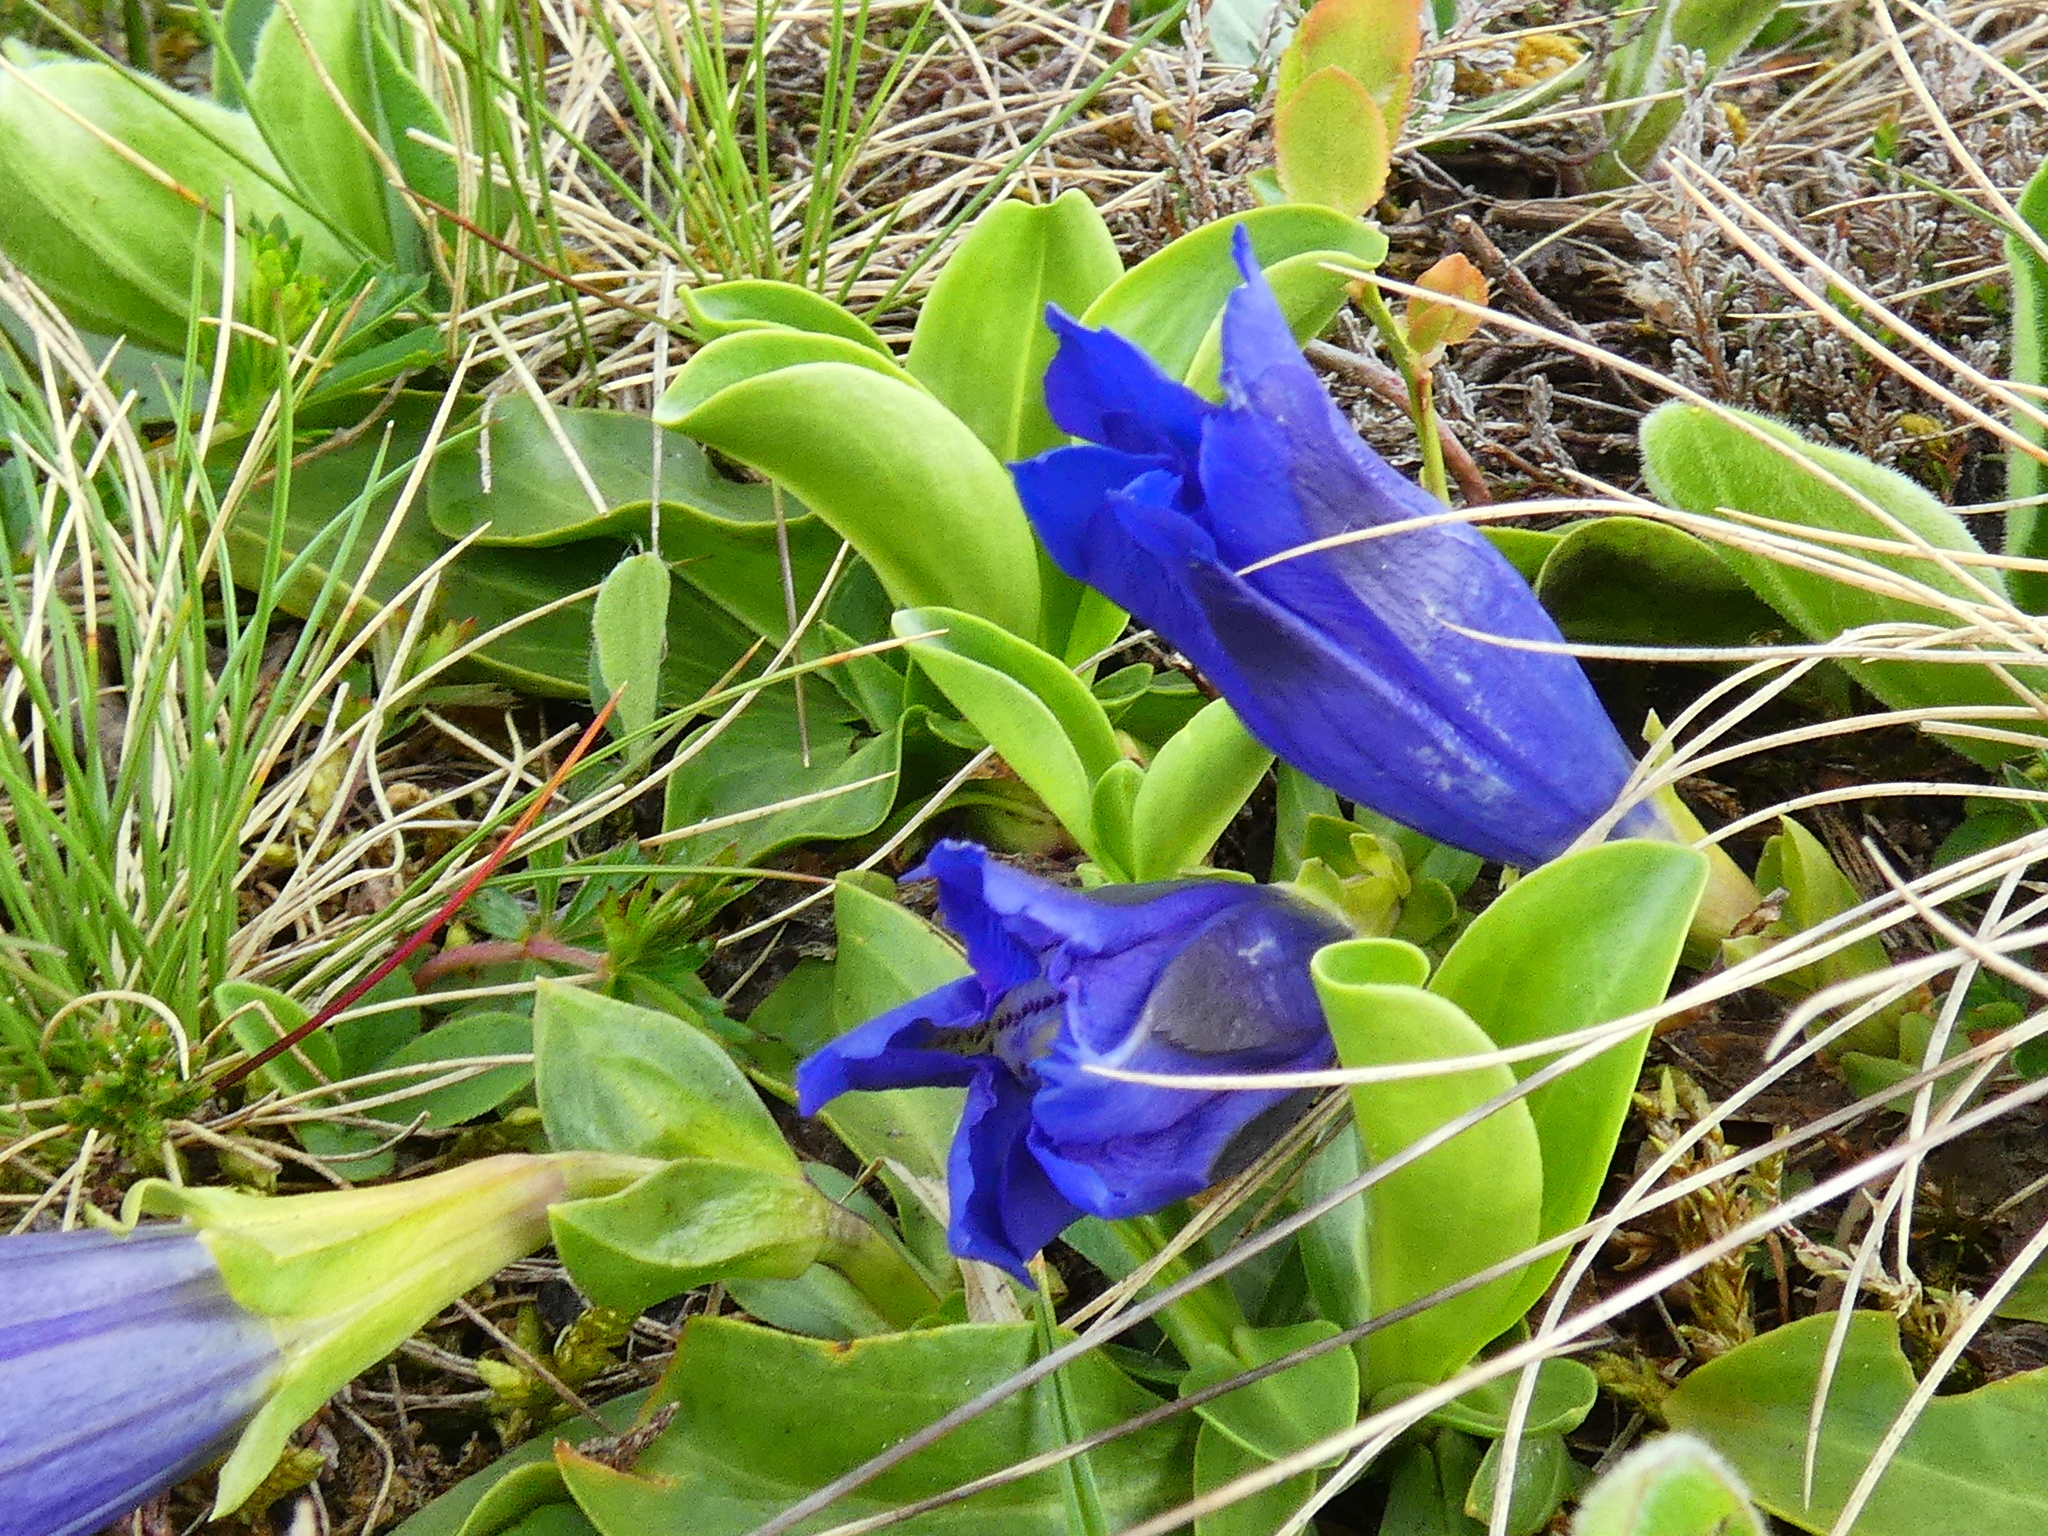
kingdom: Plantae
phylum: Tracheophyta
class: Magnoliopsida
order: Gentianales
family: Gentianaceae
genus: Gentiana
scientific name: Gentiana acaulis
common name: Trumpet gentian
